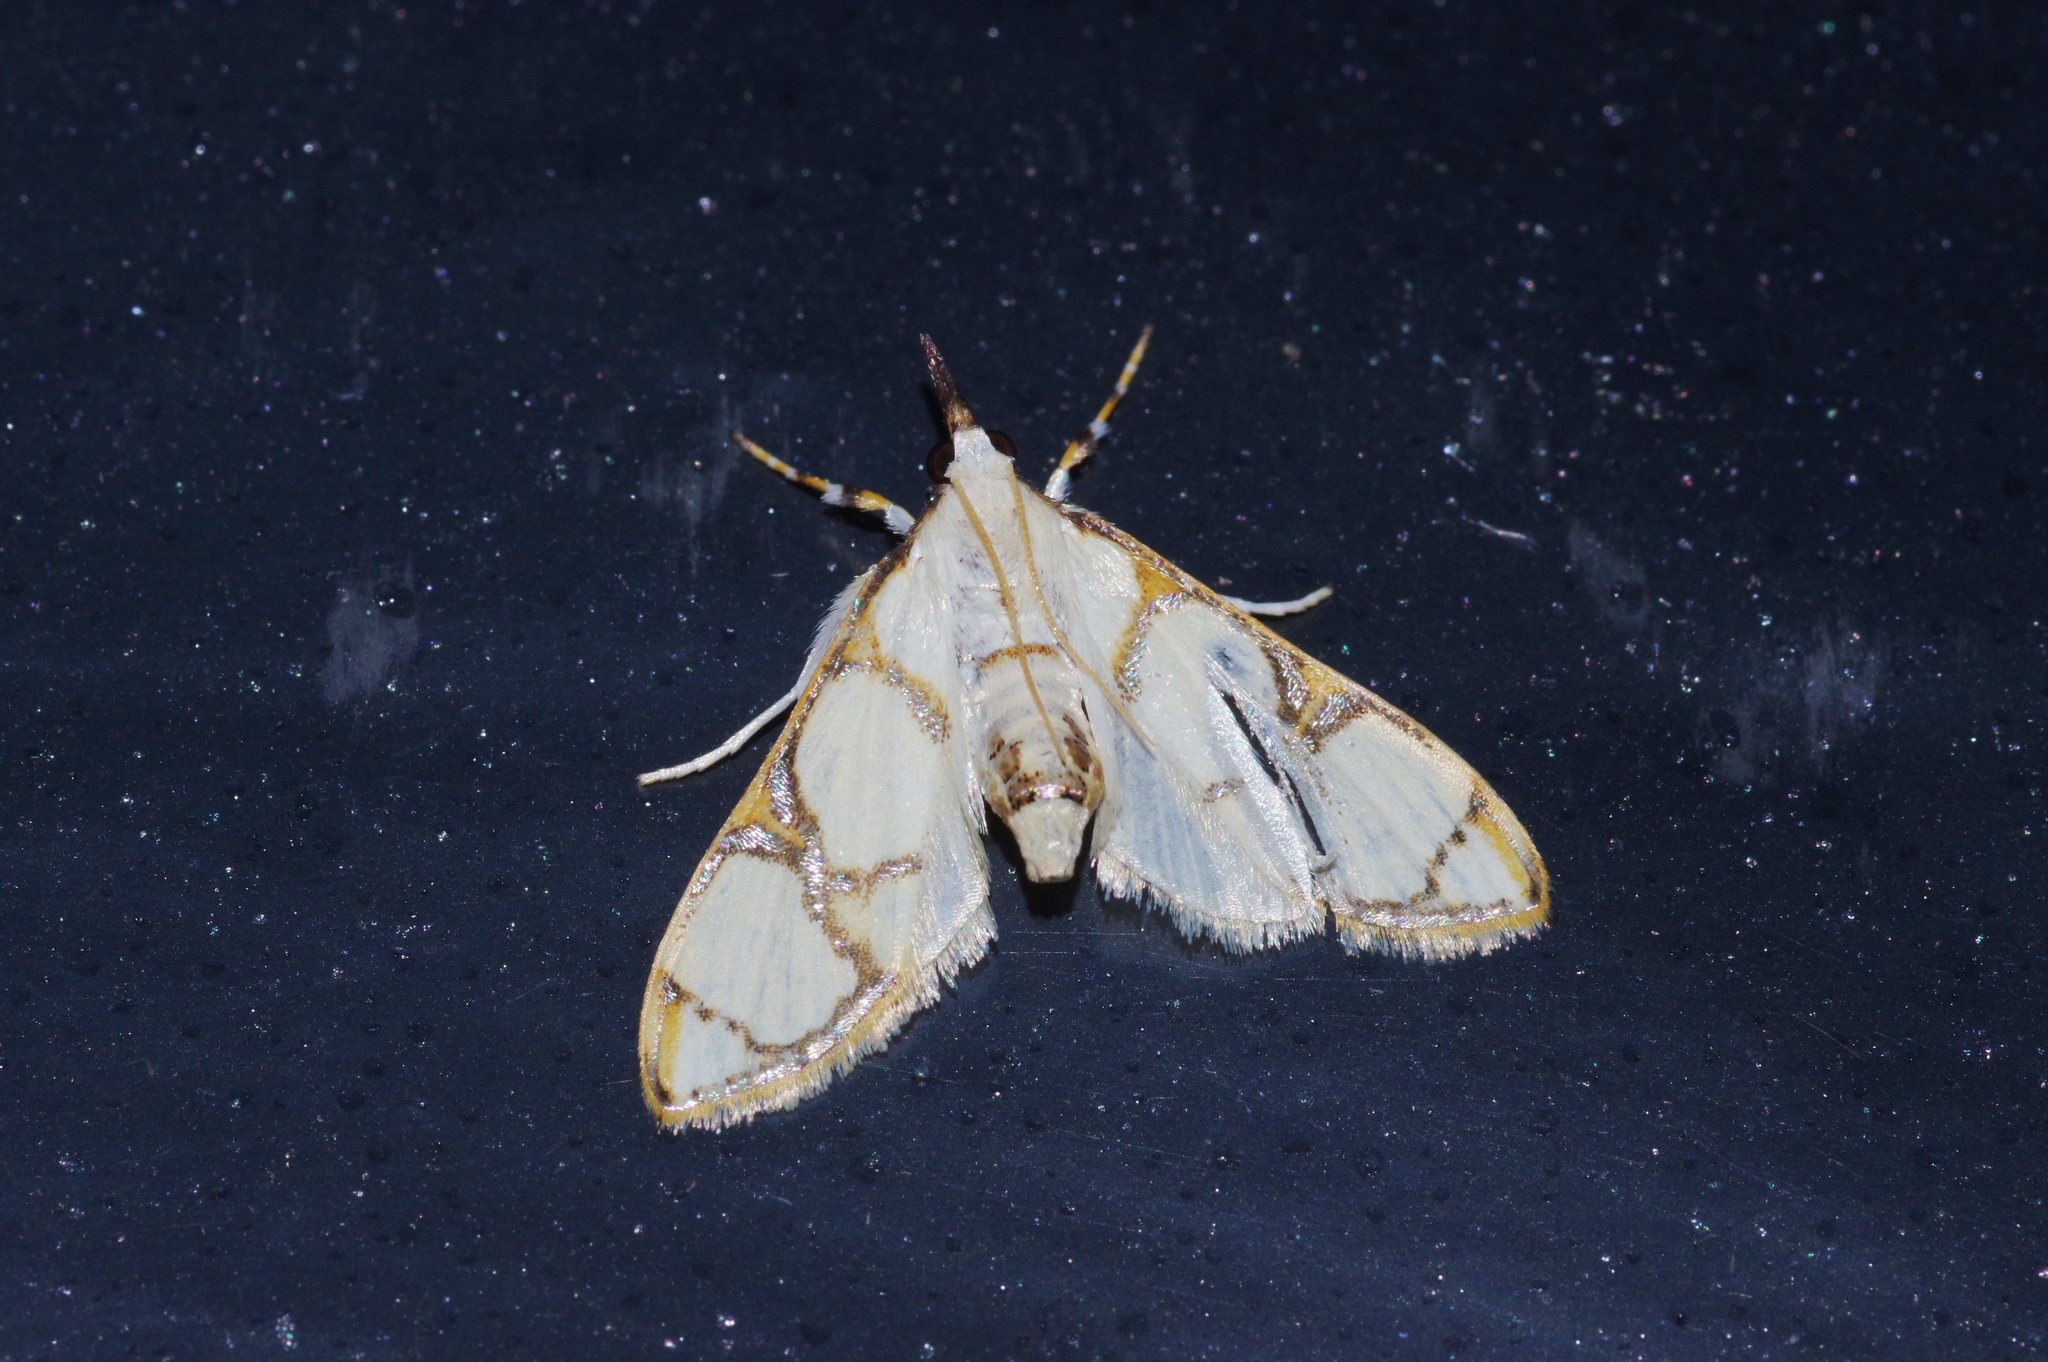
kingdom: Animalia
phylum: Arthropoda
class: Insecta
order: Lepidoptera
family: Crambidae
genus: Cirrhochrista
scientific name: Cirrhochrista kosemponialis
